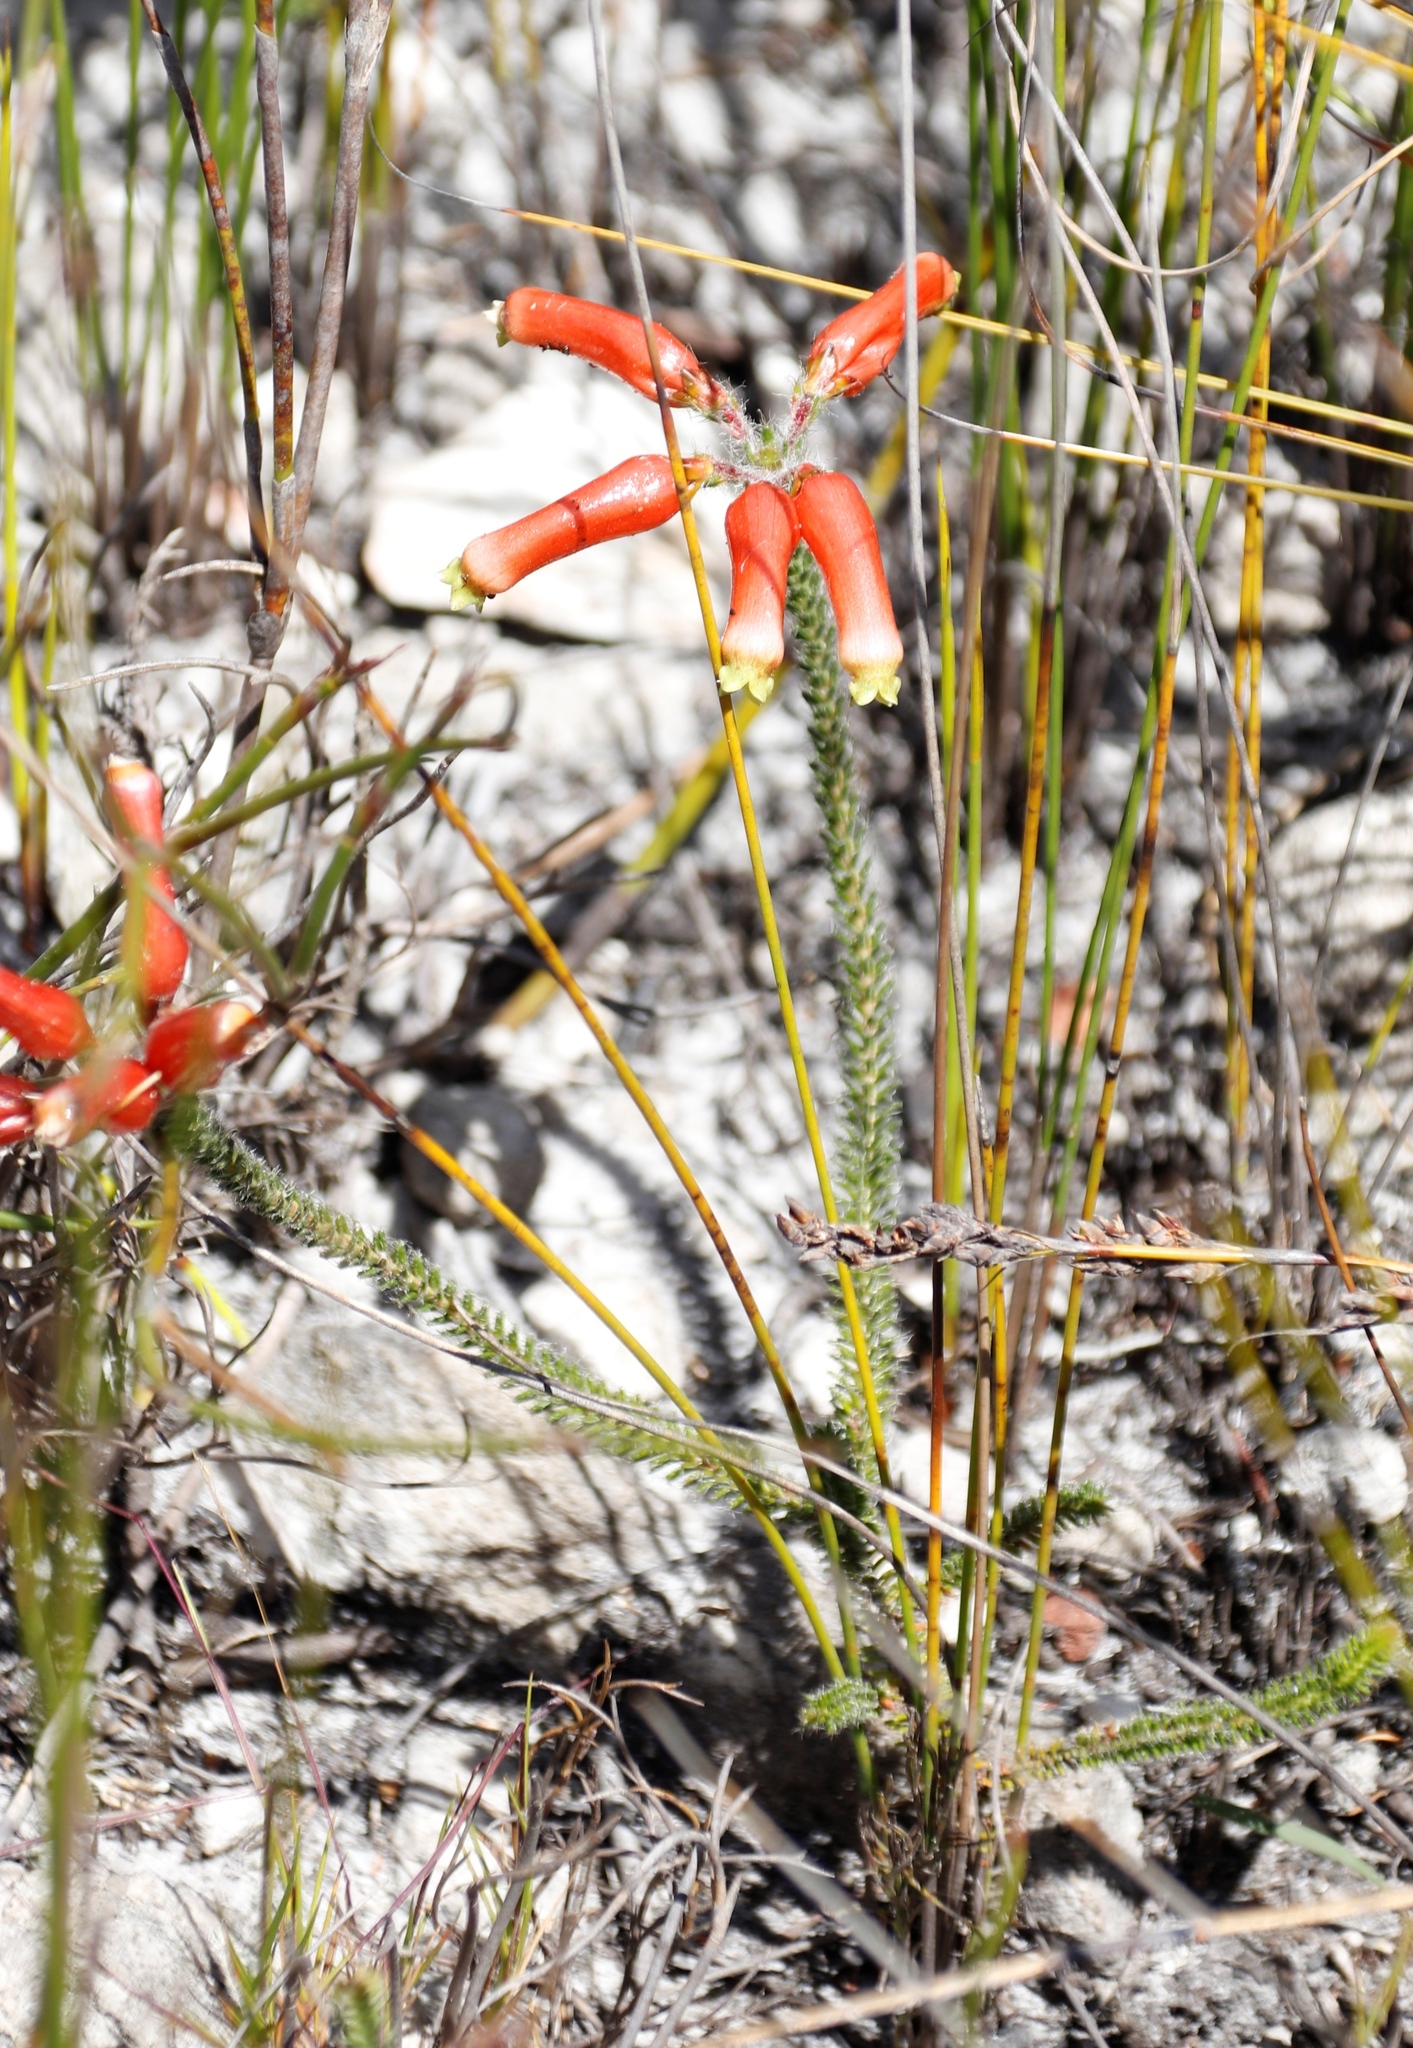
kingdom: Plantae
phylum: Tracheophyta
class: Magnoliopsida
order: Ericales
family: Ericaceae
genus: Erica
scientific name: Erica massonii
